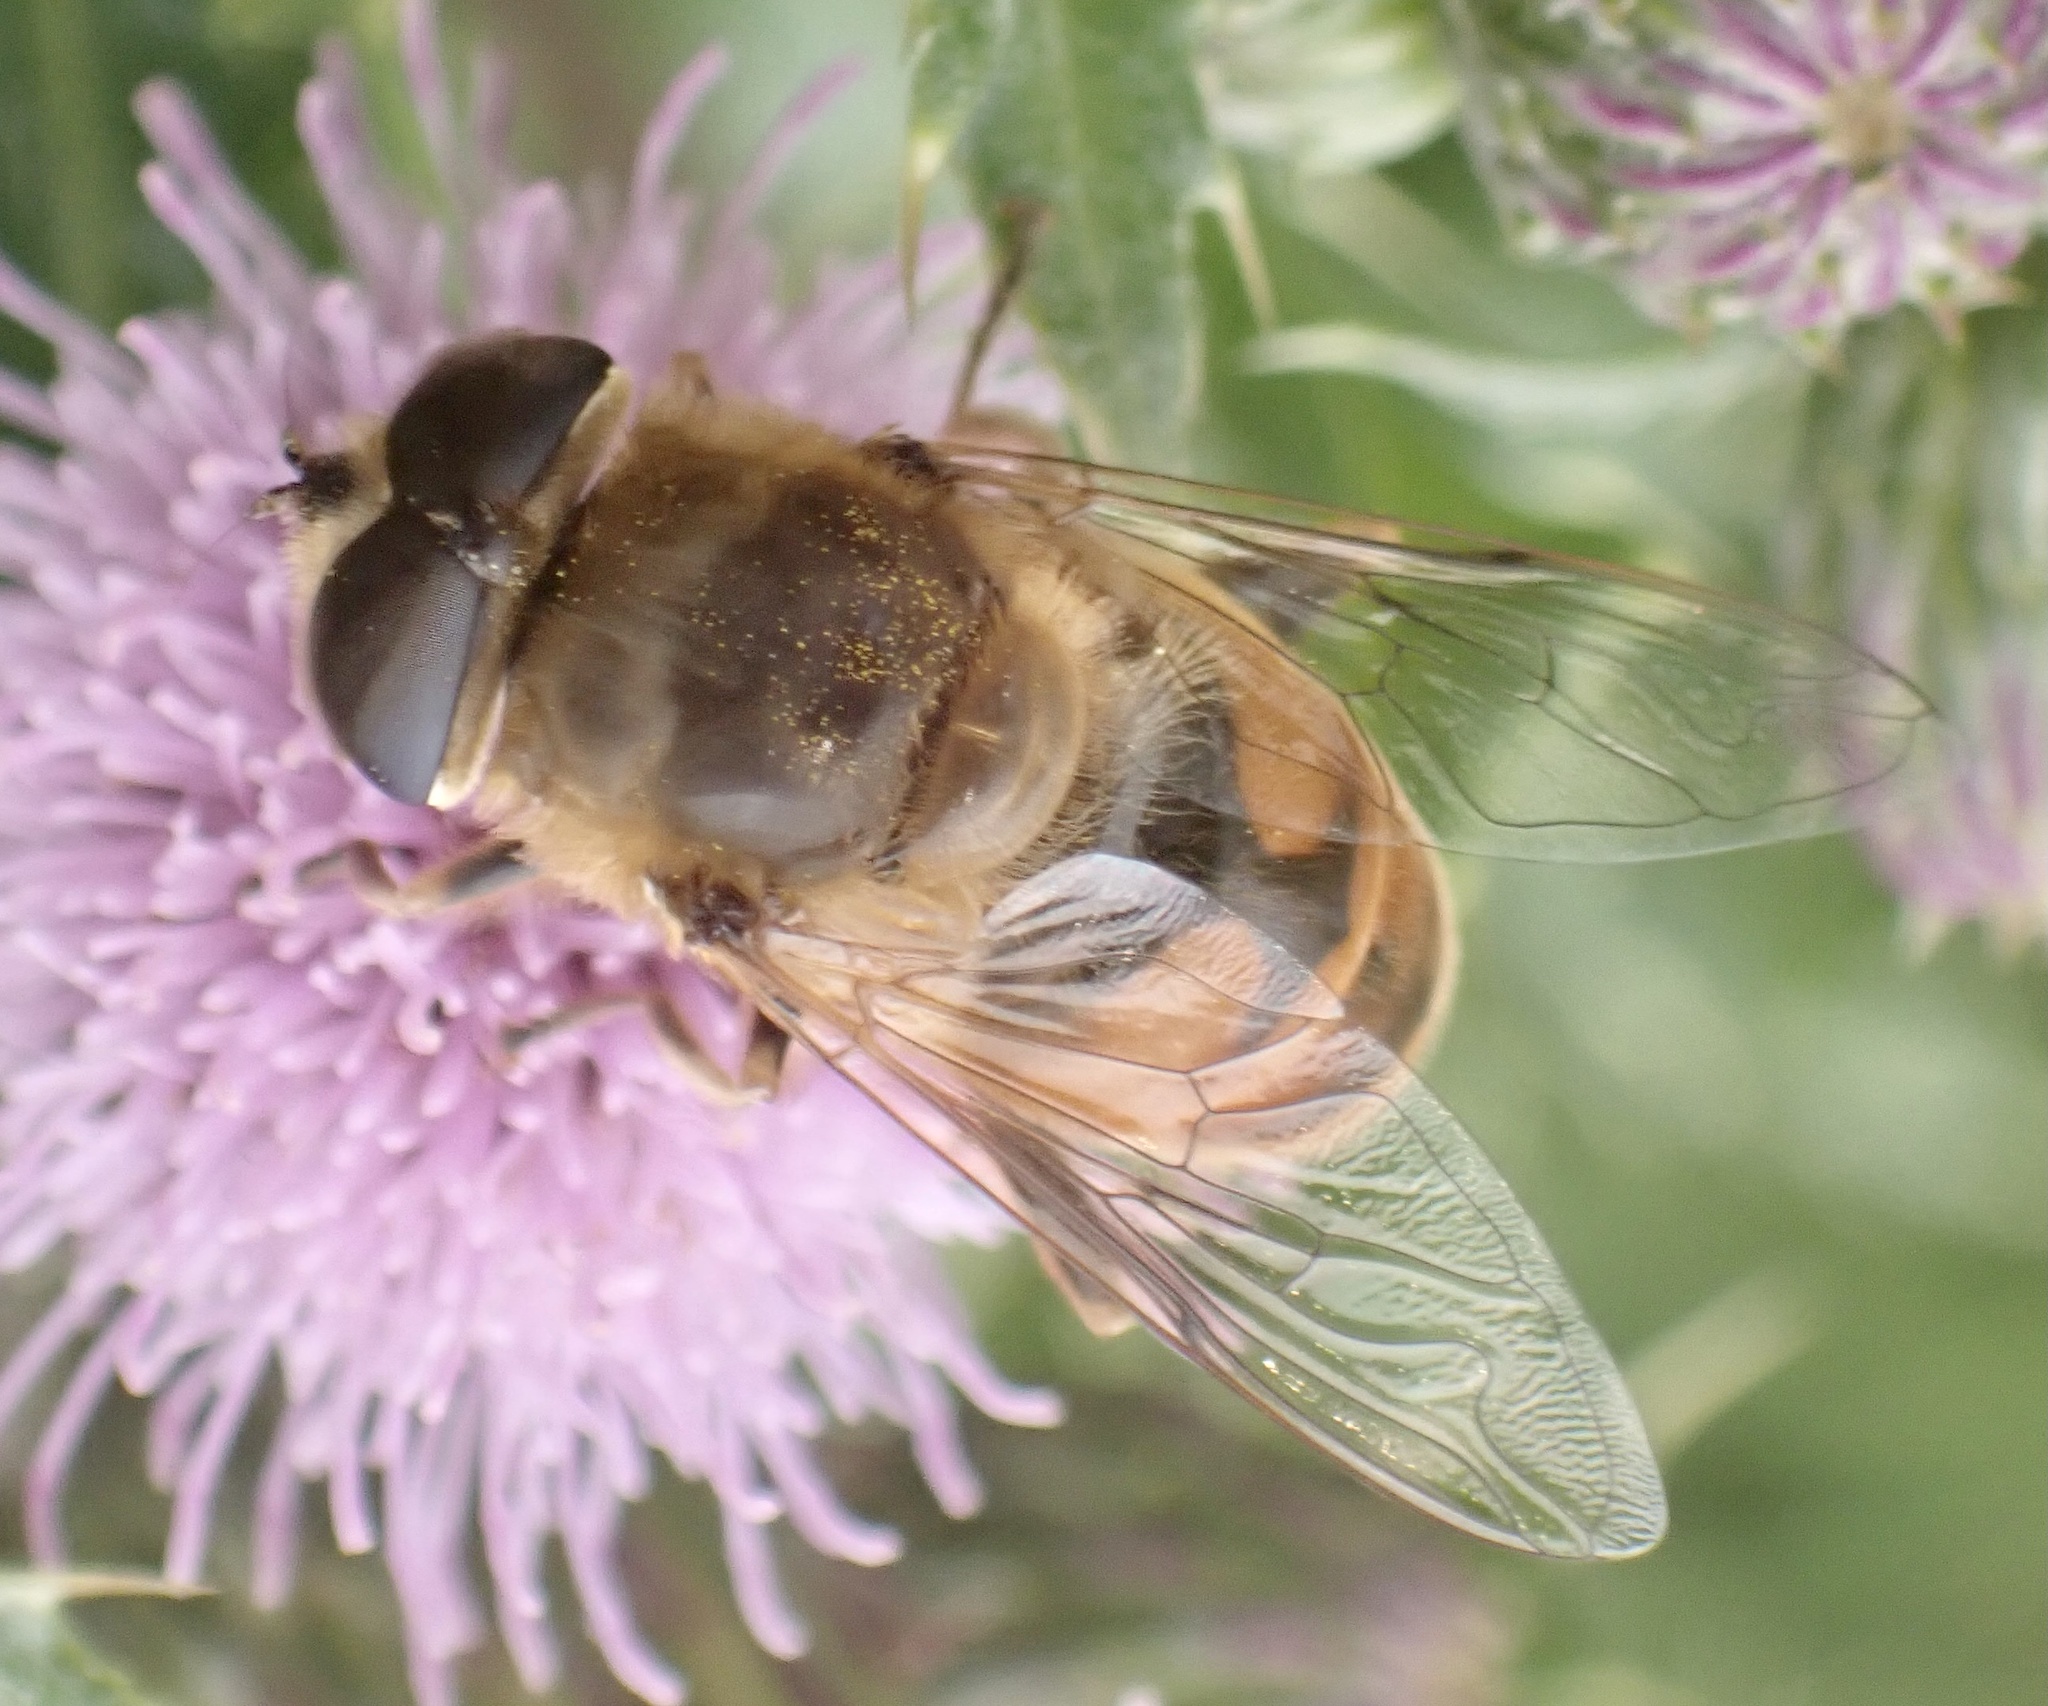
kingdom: Animalia
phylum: Arthropoda
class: Insecta
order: Diptera
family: Syrphidae
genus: Eristalis
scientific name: Eristalis tenax
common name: Drone fly
